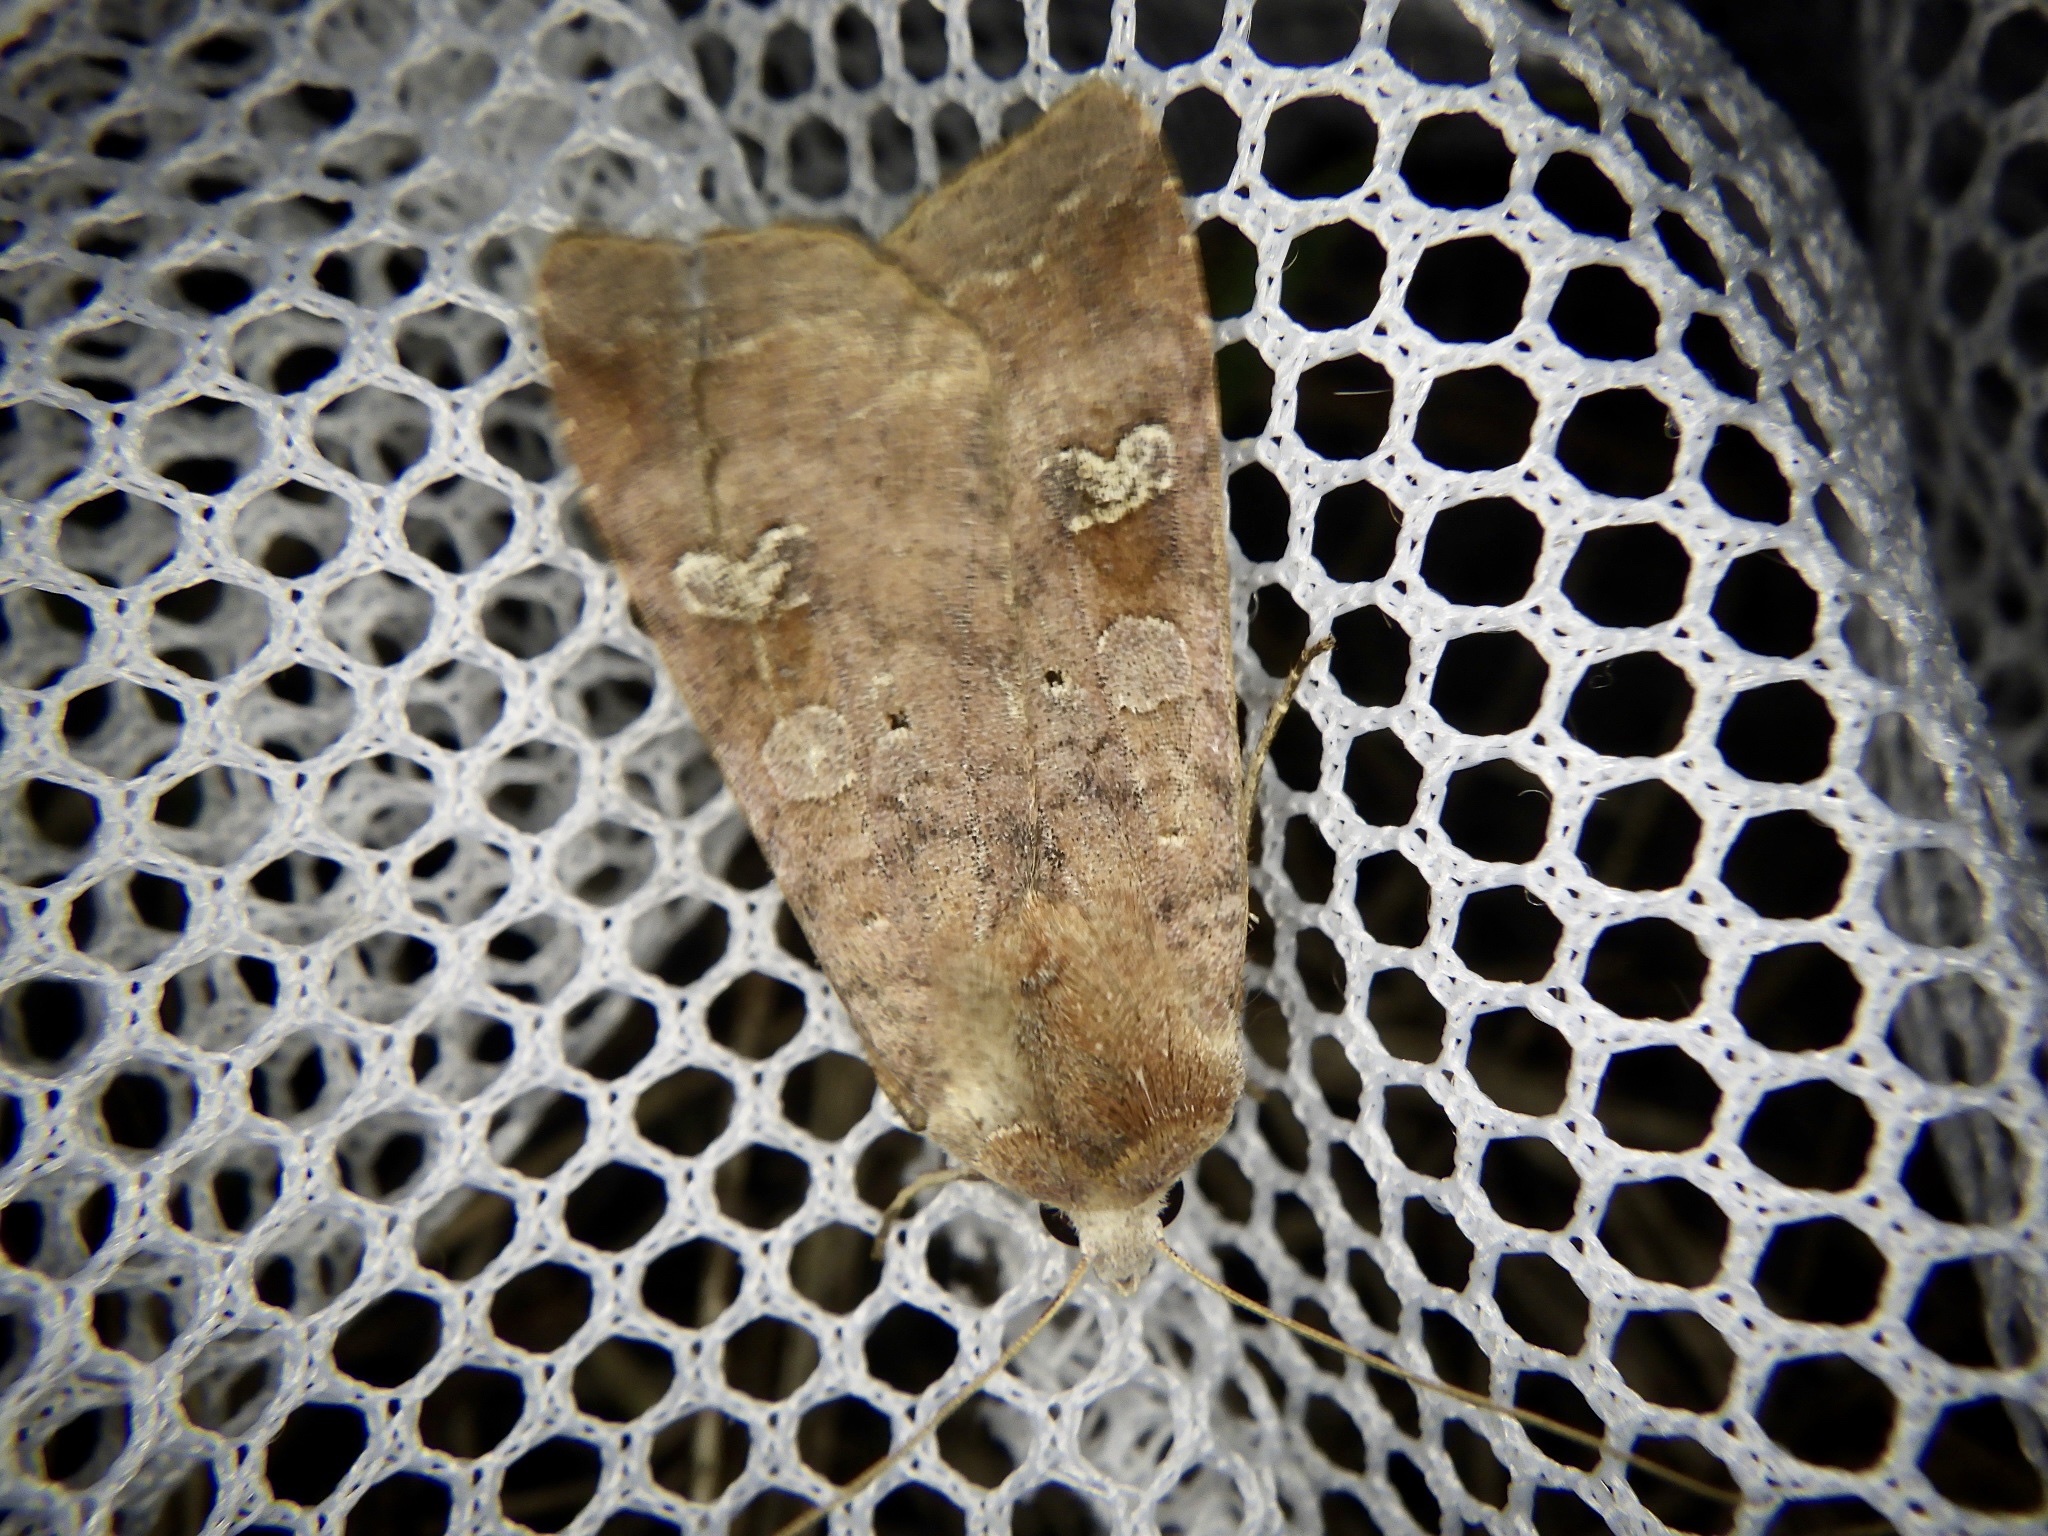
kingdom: Animalia
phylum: Arthropoda
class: Insecta
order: Lepidoptera
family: Noctuidae
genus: Diarsia
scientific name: Diarsia canescens
